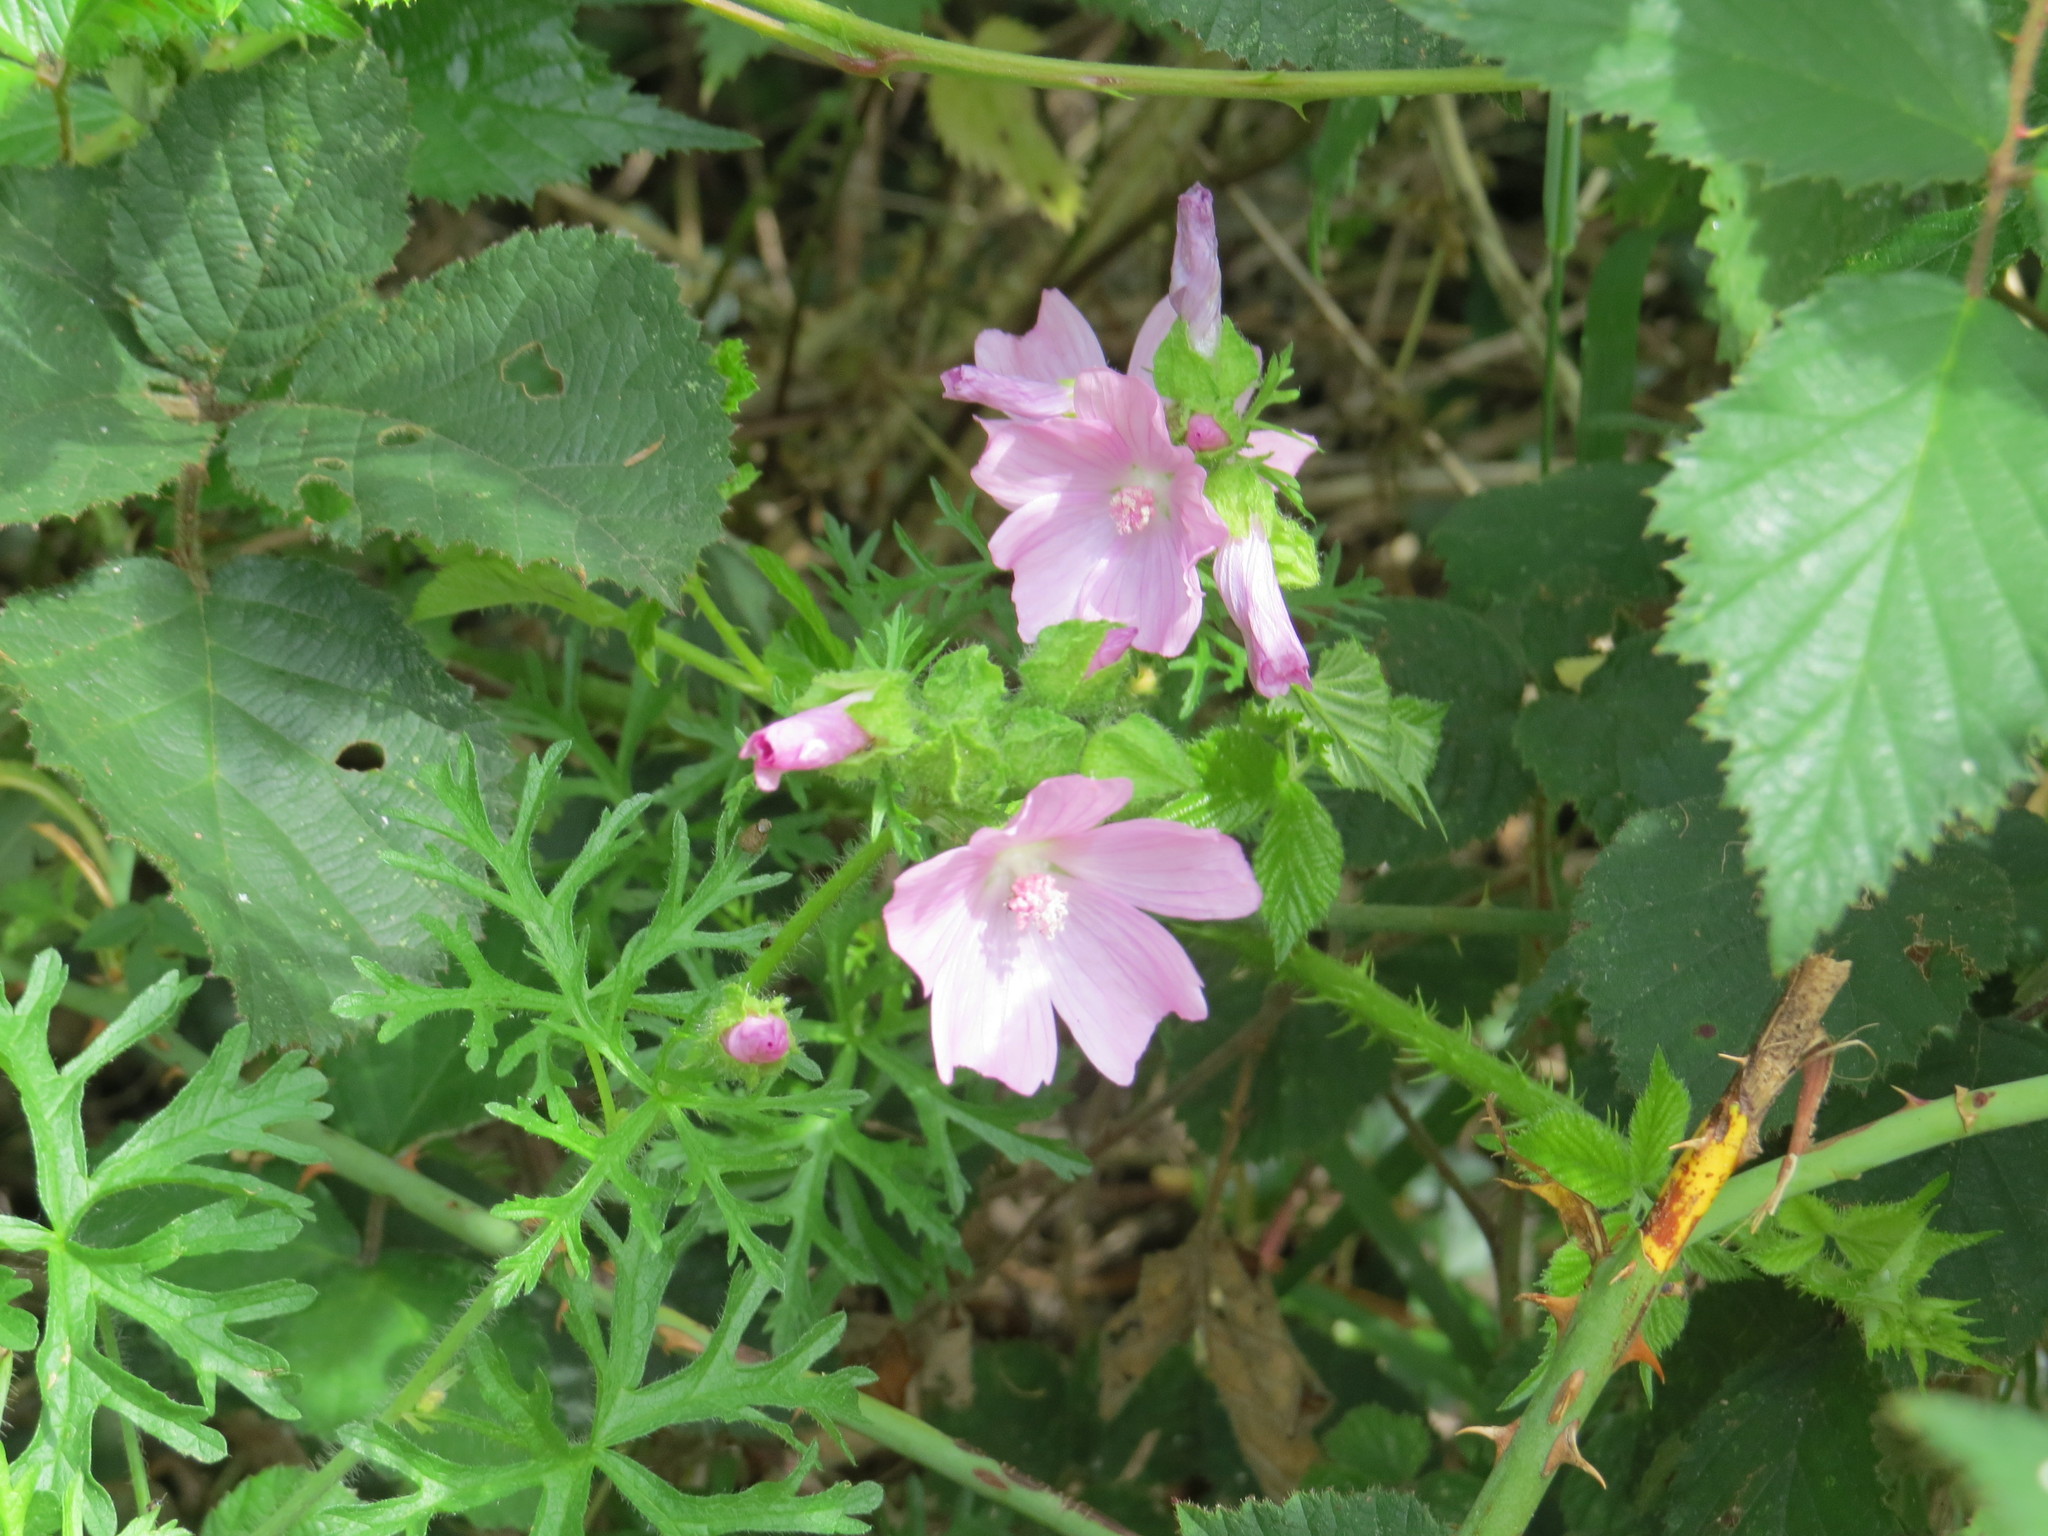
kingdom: Plantae
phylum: Tracheophyta
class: Magnoliopsida
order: Malvales
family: Malvaceae
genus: Malva
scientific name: Malva moschata
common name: Musk mallow
